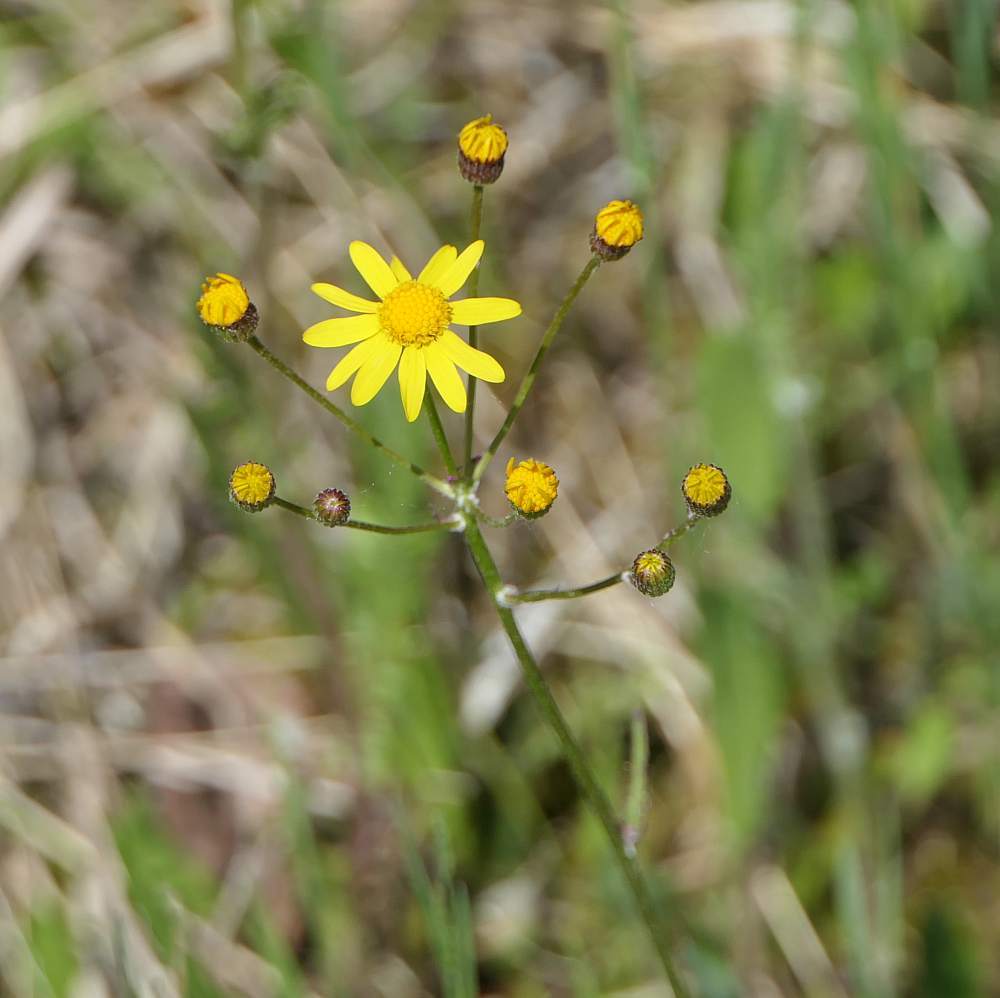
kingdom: Plantae
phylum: Tracheophyta
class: Magnoliopsida
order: Asterales
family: Asteraceae
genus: Packera
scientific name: Packera paupercula
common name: Balsam groundsel
